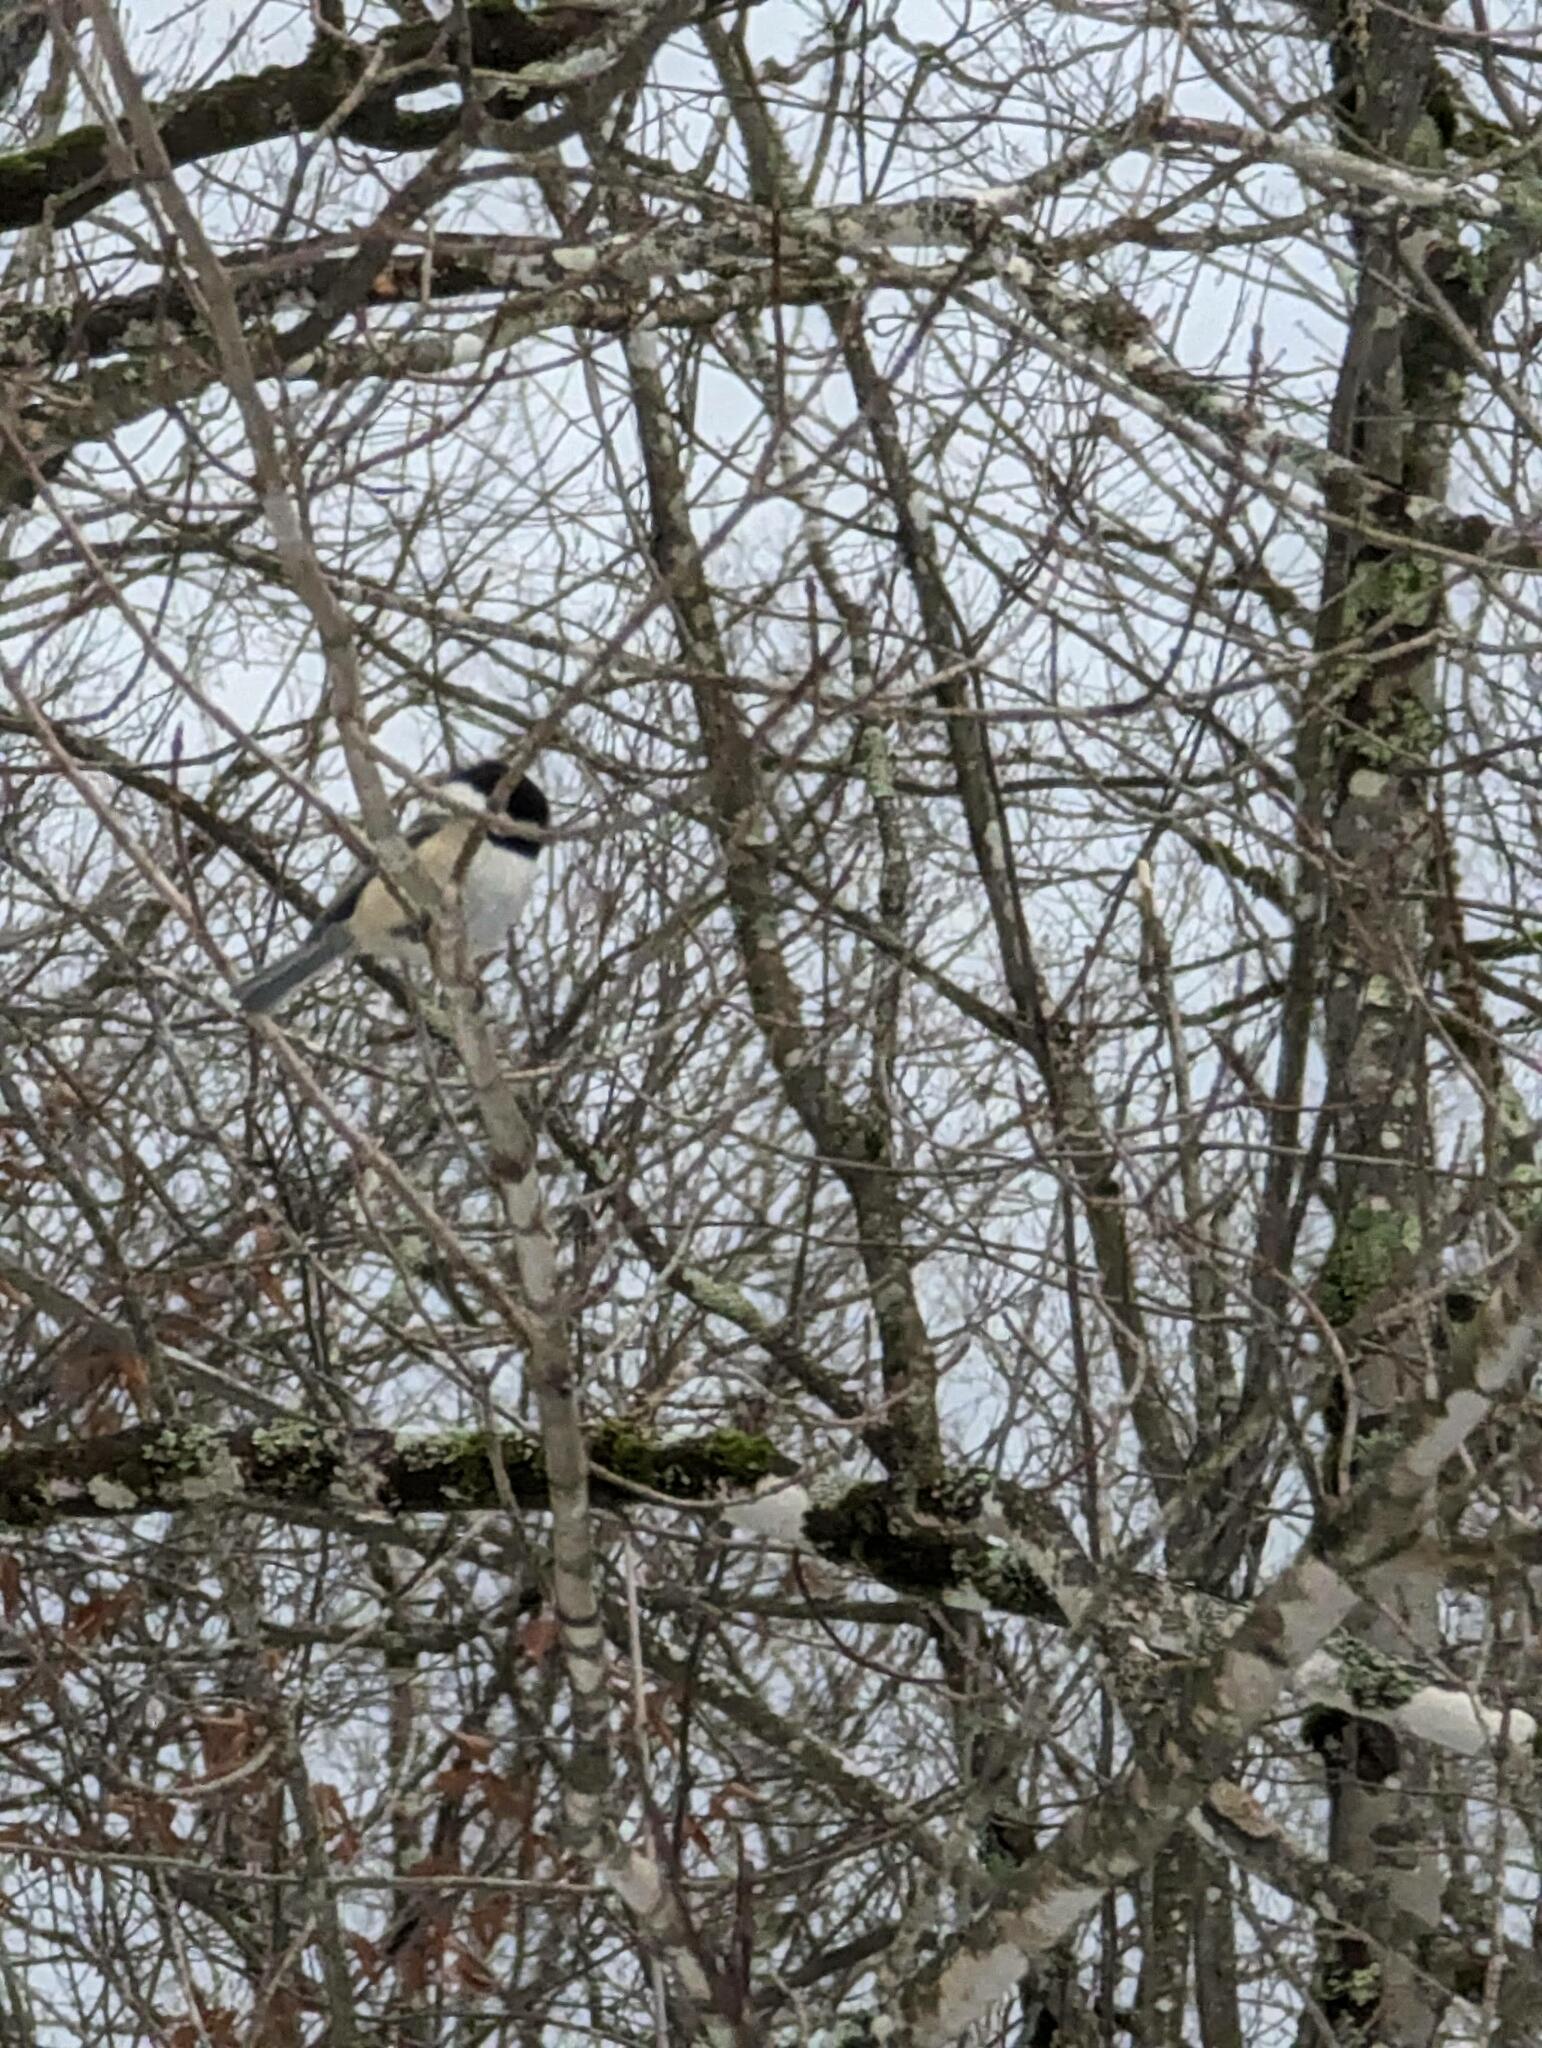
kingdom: Animalia
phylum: Chordata
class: Aves
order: Passeriformes
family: Paridae
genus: Poecile
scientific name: Poecile atricapillus
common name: Black-capped chickadee
